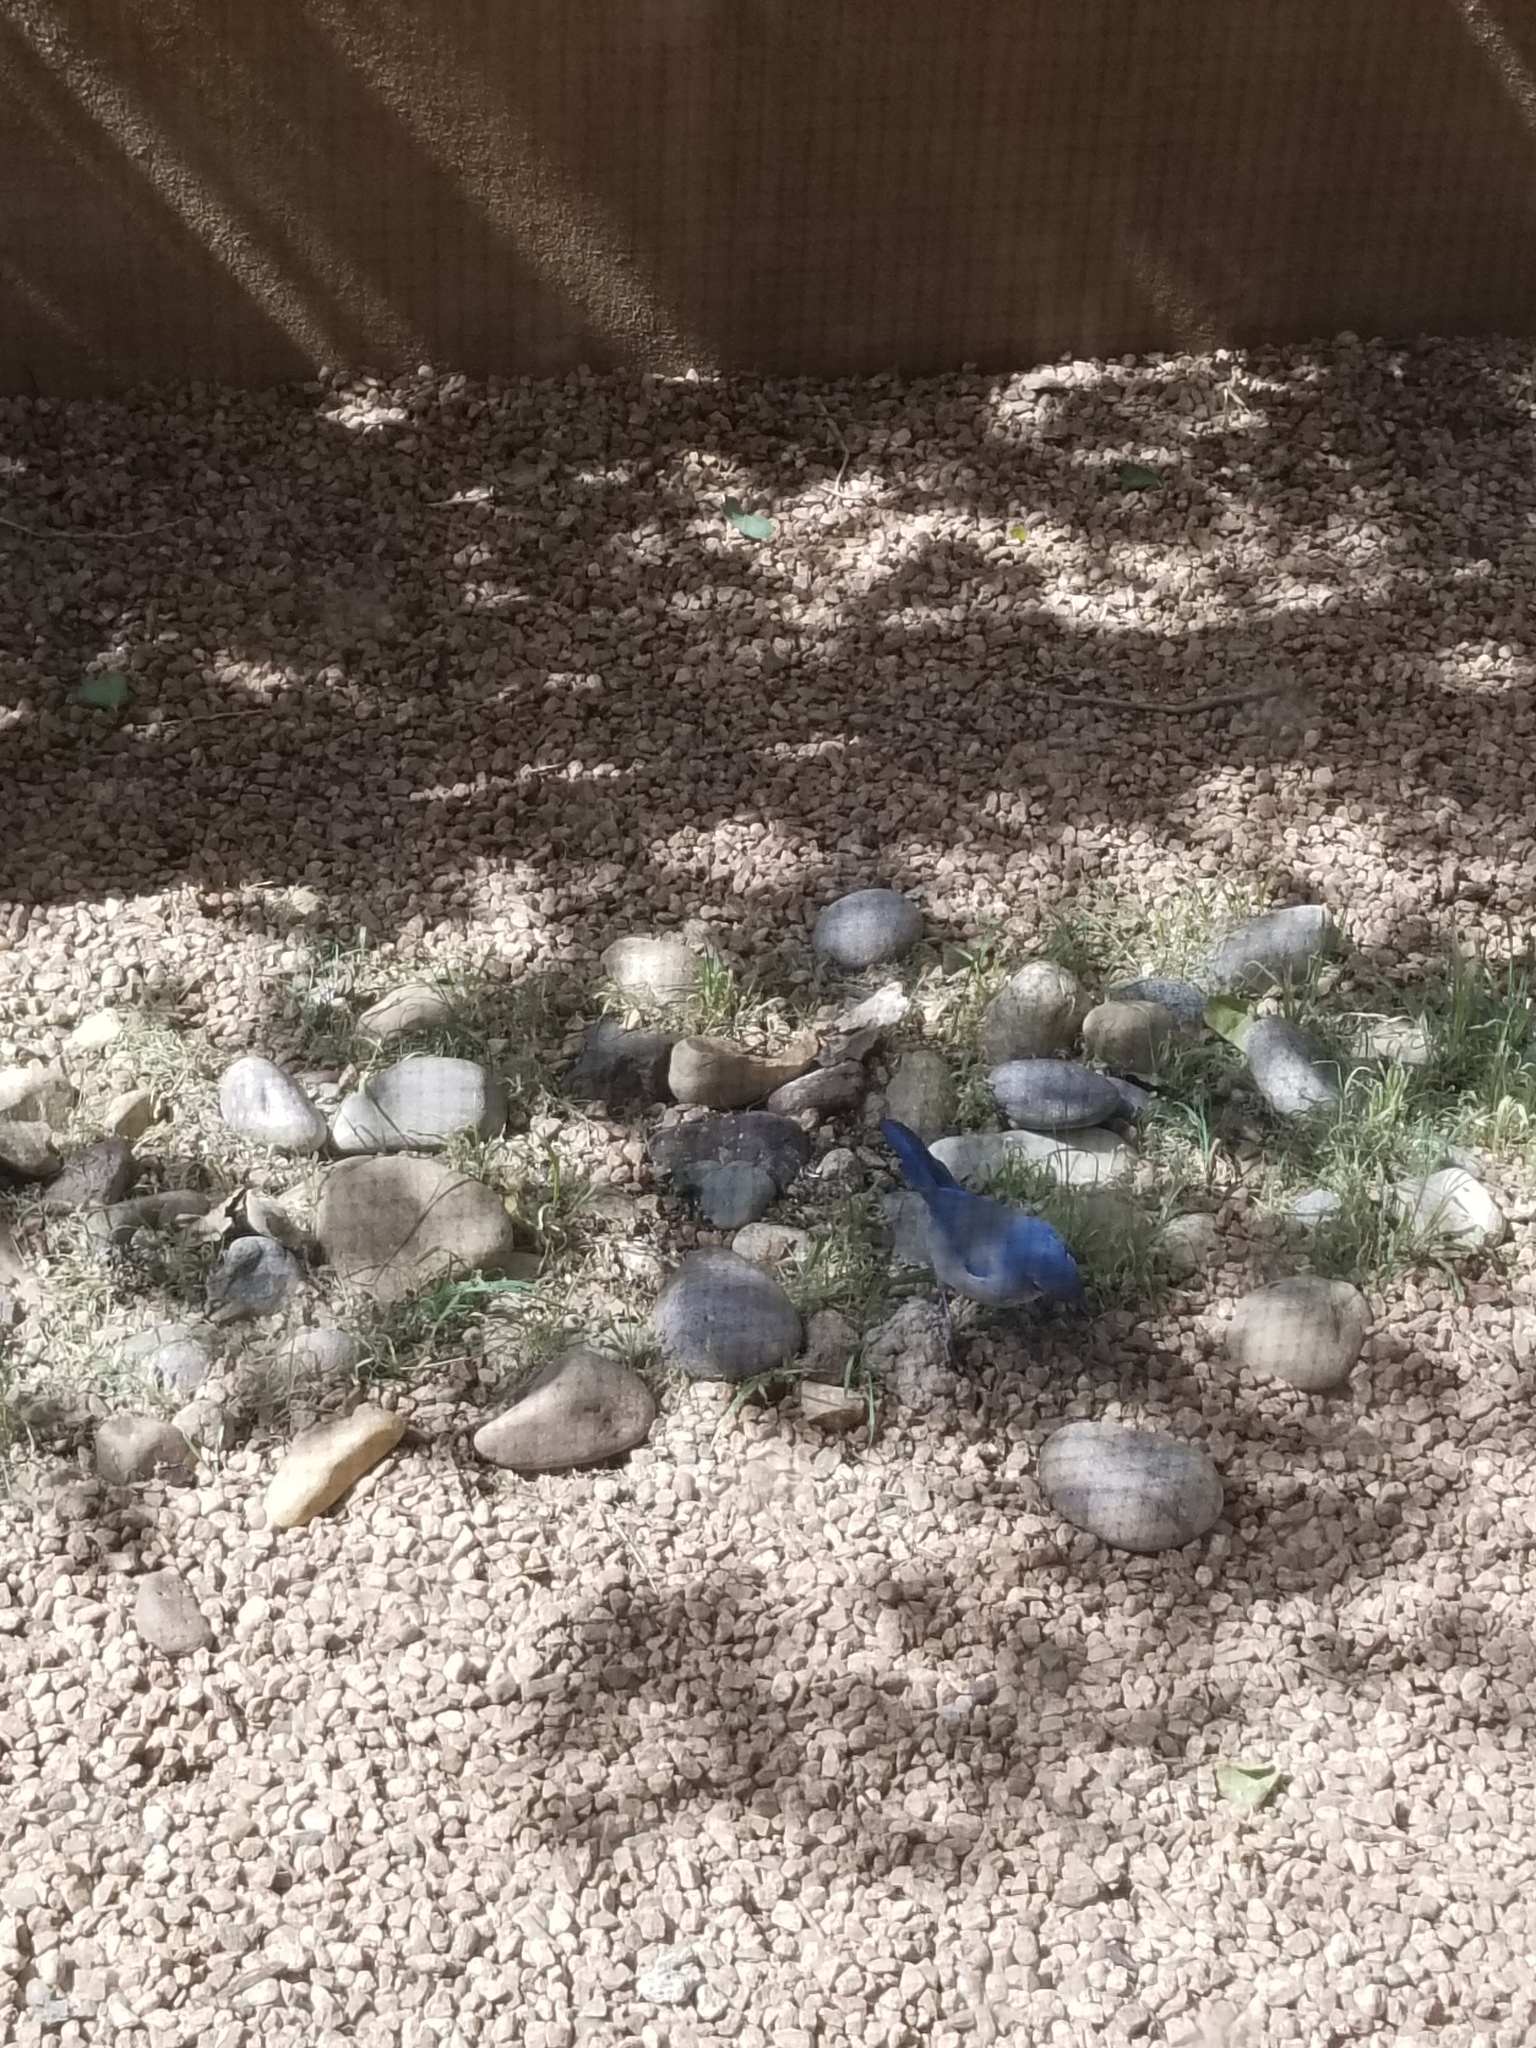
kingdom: Animalia
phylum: Chordata
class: Aves
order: Passeriformes
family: Turdidae
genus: Sialia
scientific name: Sialia currucoides
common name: Mountain bluebird
